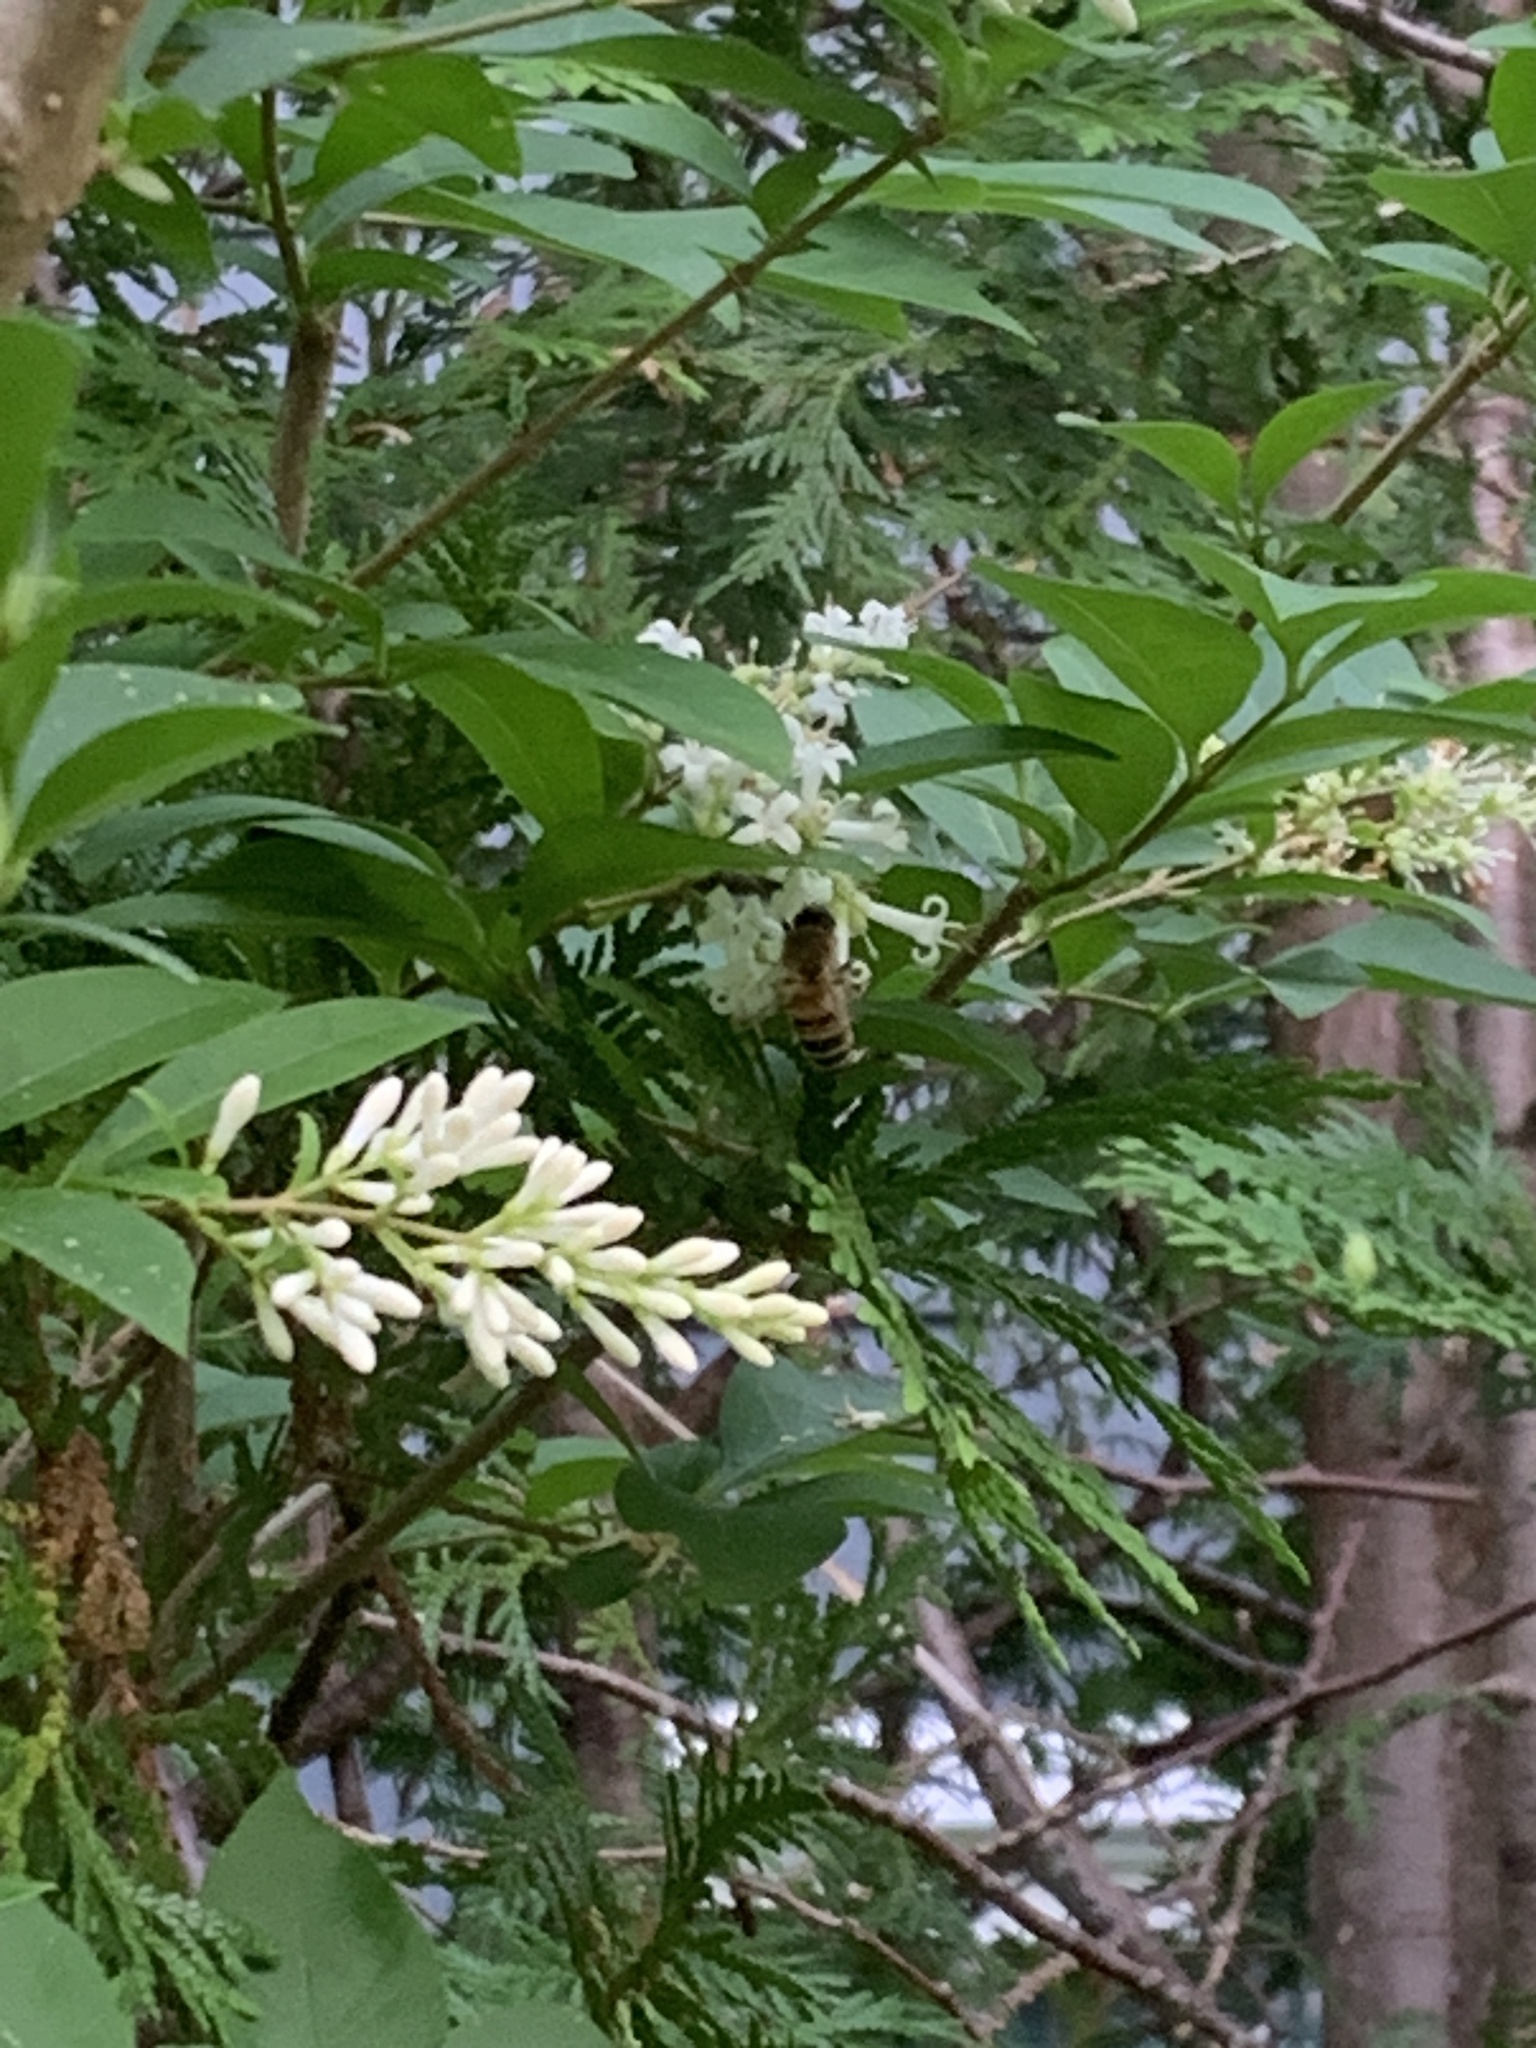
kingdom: Animalia
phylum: Arthropoda
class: Insecta
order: Hymenoptera
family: Apidae
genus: Apis
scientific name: Apis mellifera
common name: Honey bee
